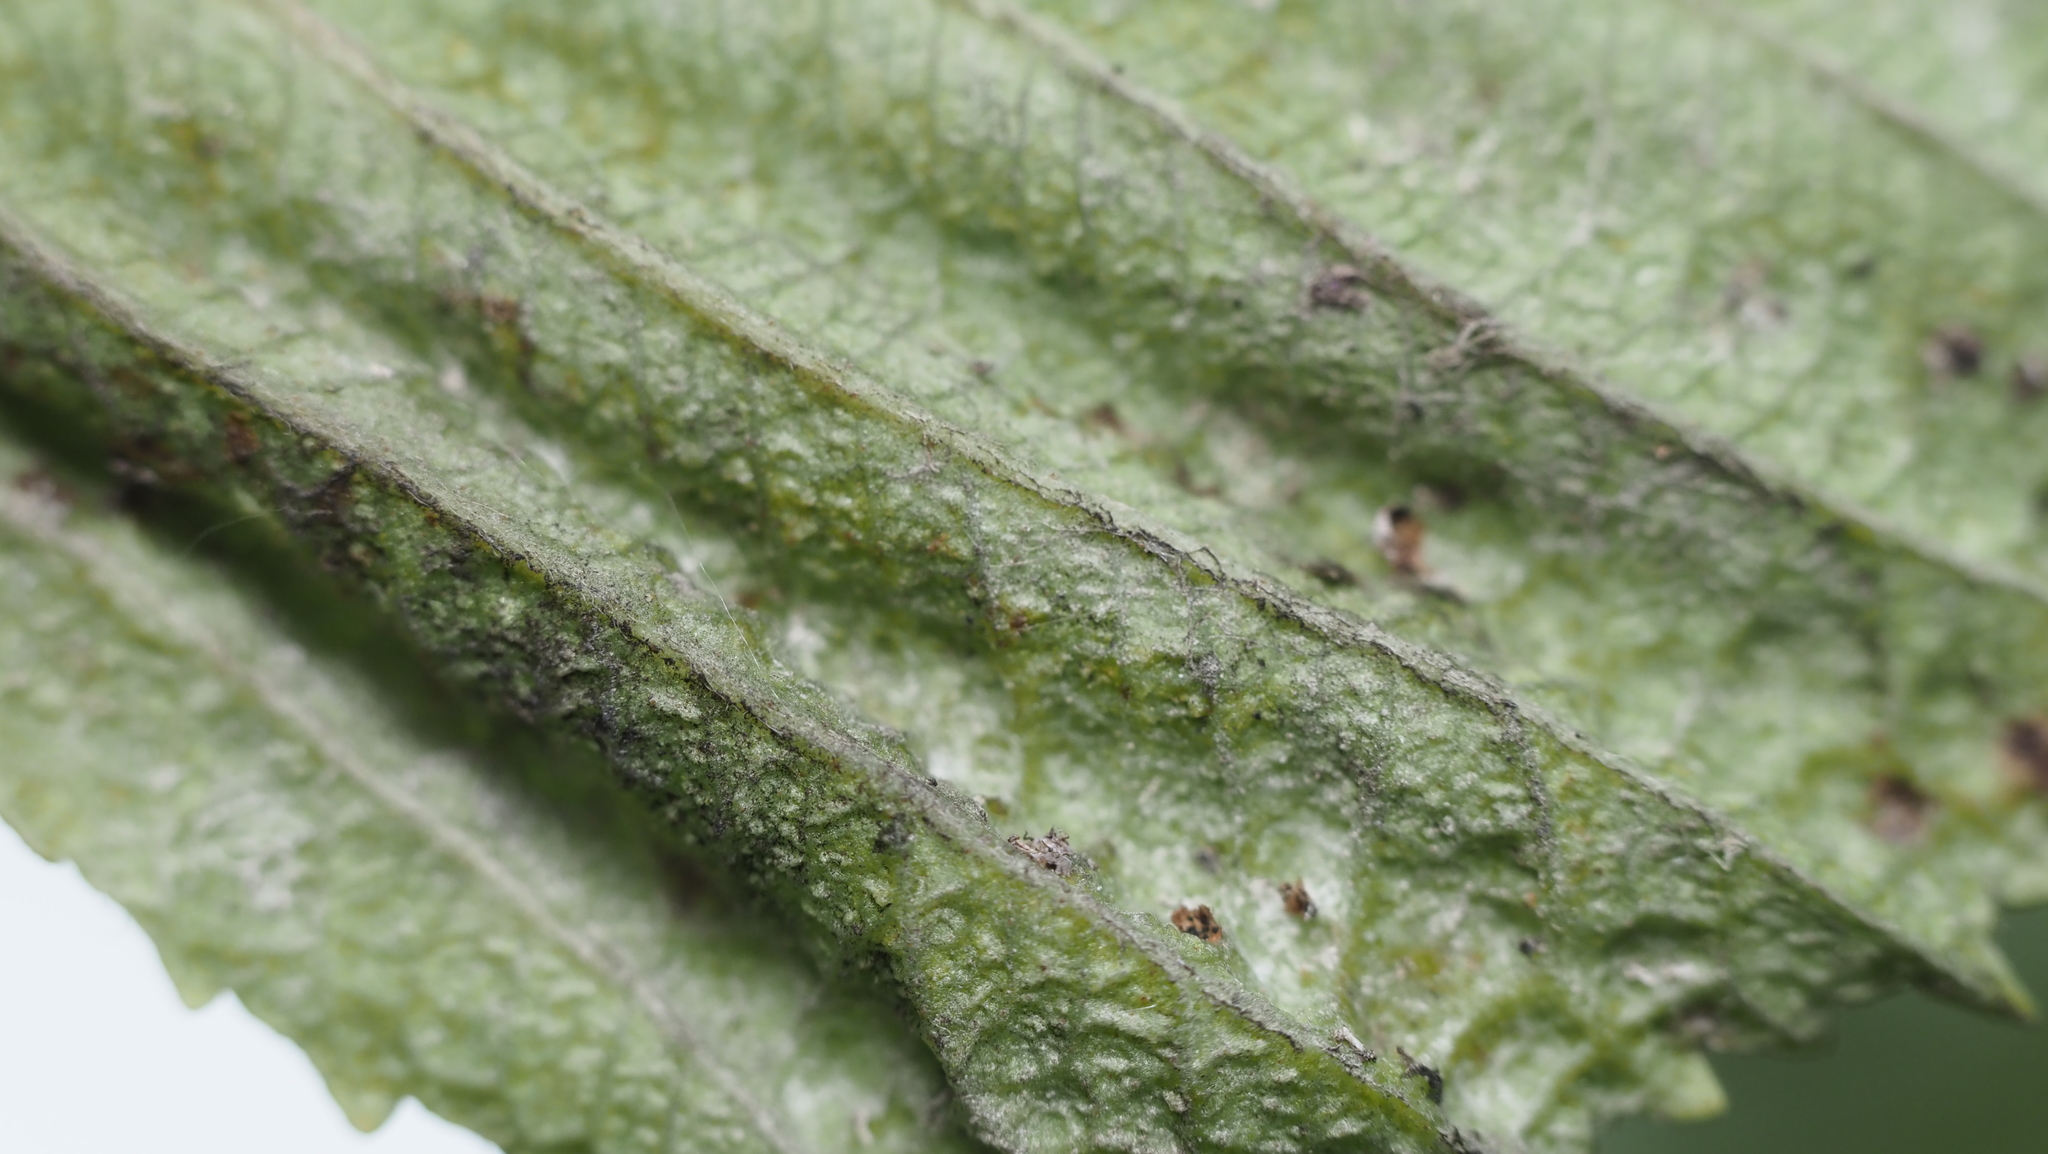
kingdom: Animalia
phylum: Arthropoda
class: Insecta
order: Hemiptera
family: Aphididae
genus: Hamamelistes
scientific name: Hamamelistes spinosus
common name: Witch hazel gall aphid
